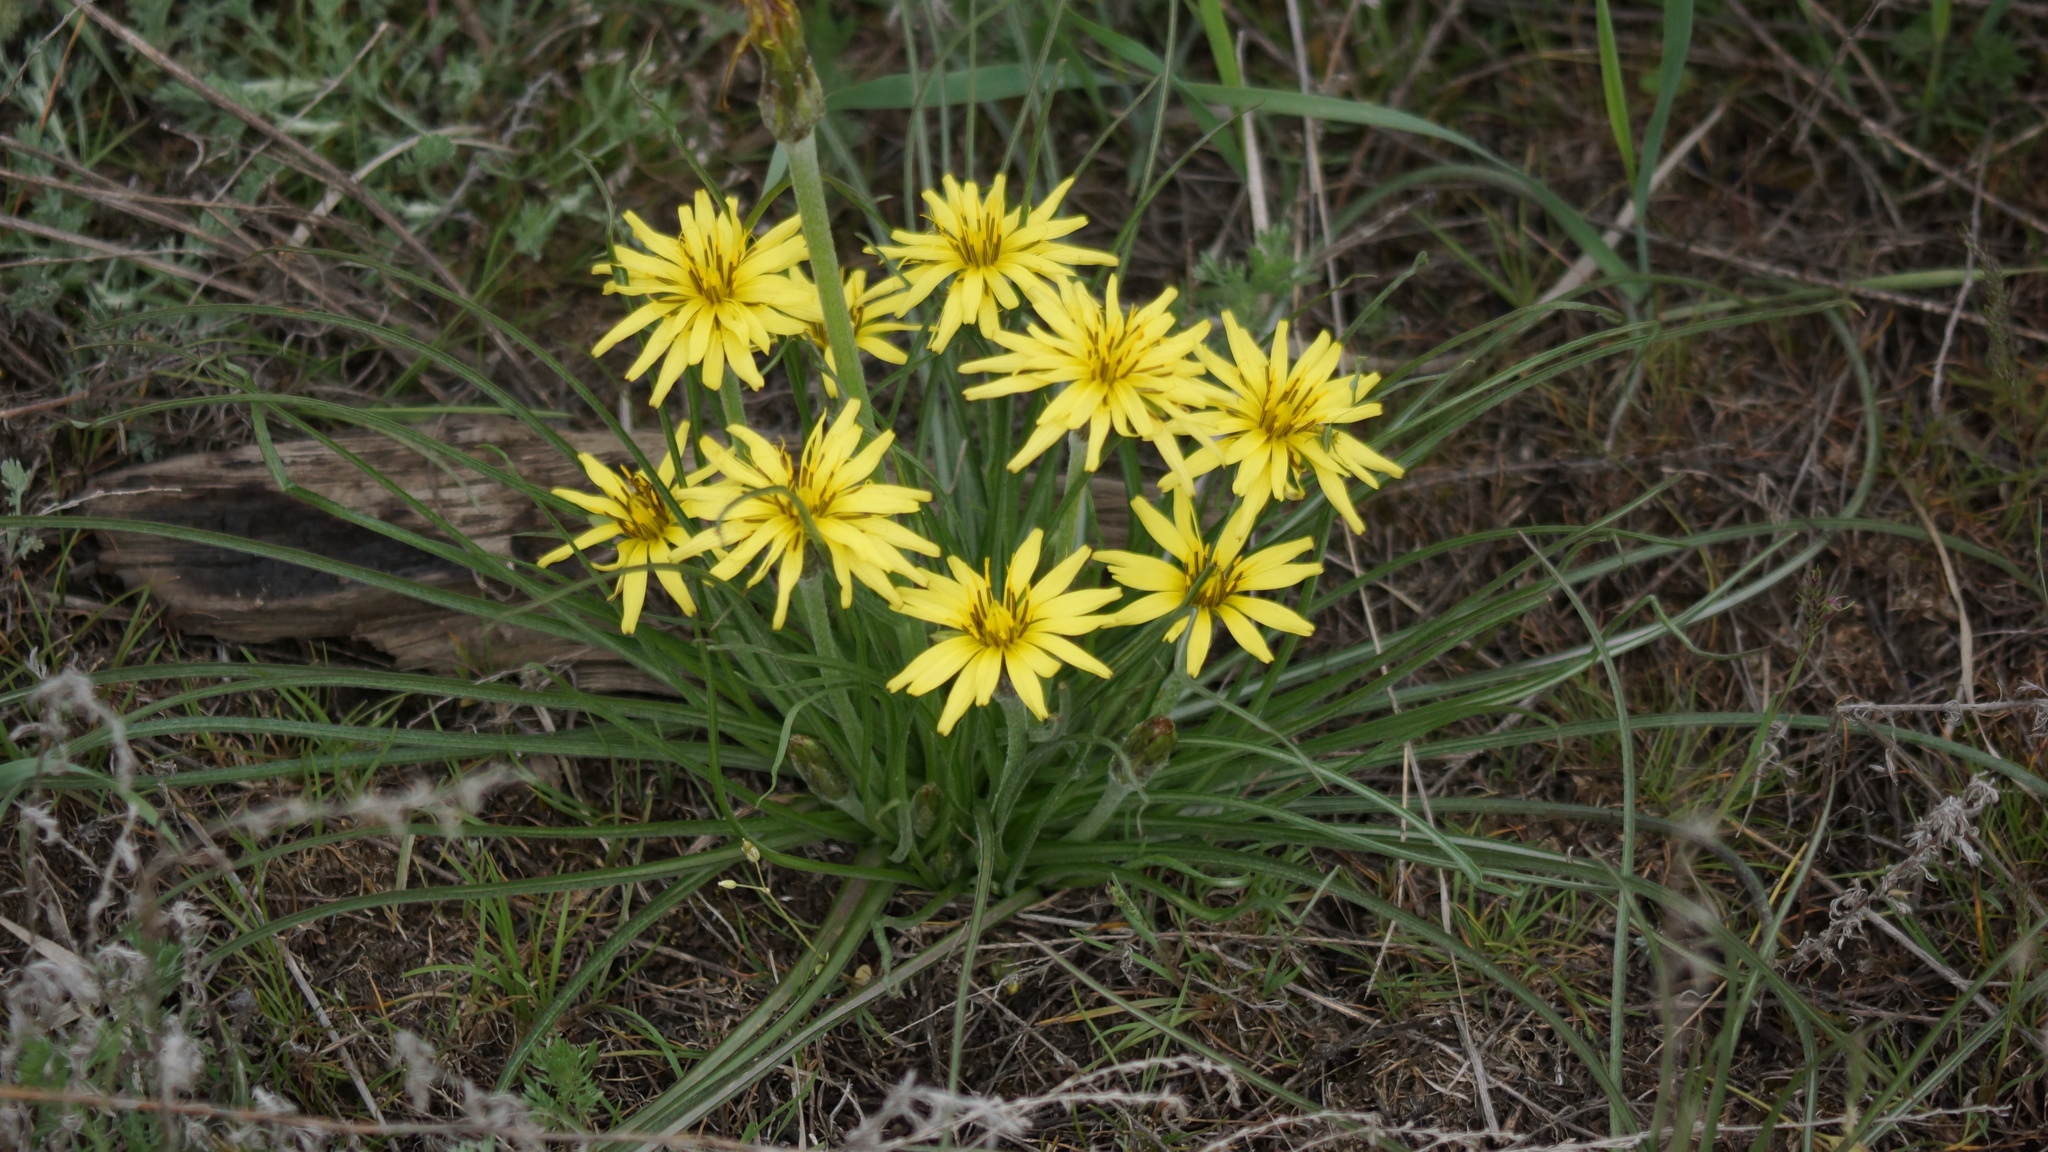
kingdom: Plantae
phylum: Tracheophyta
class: Magnoliopsida
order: Asterales
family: Asteraceae
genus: Candollea
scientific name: Candollea mollis
